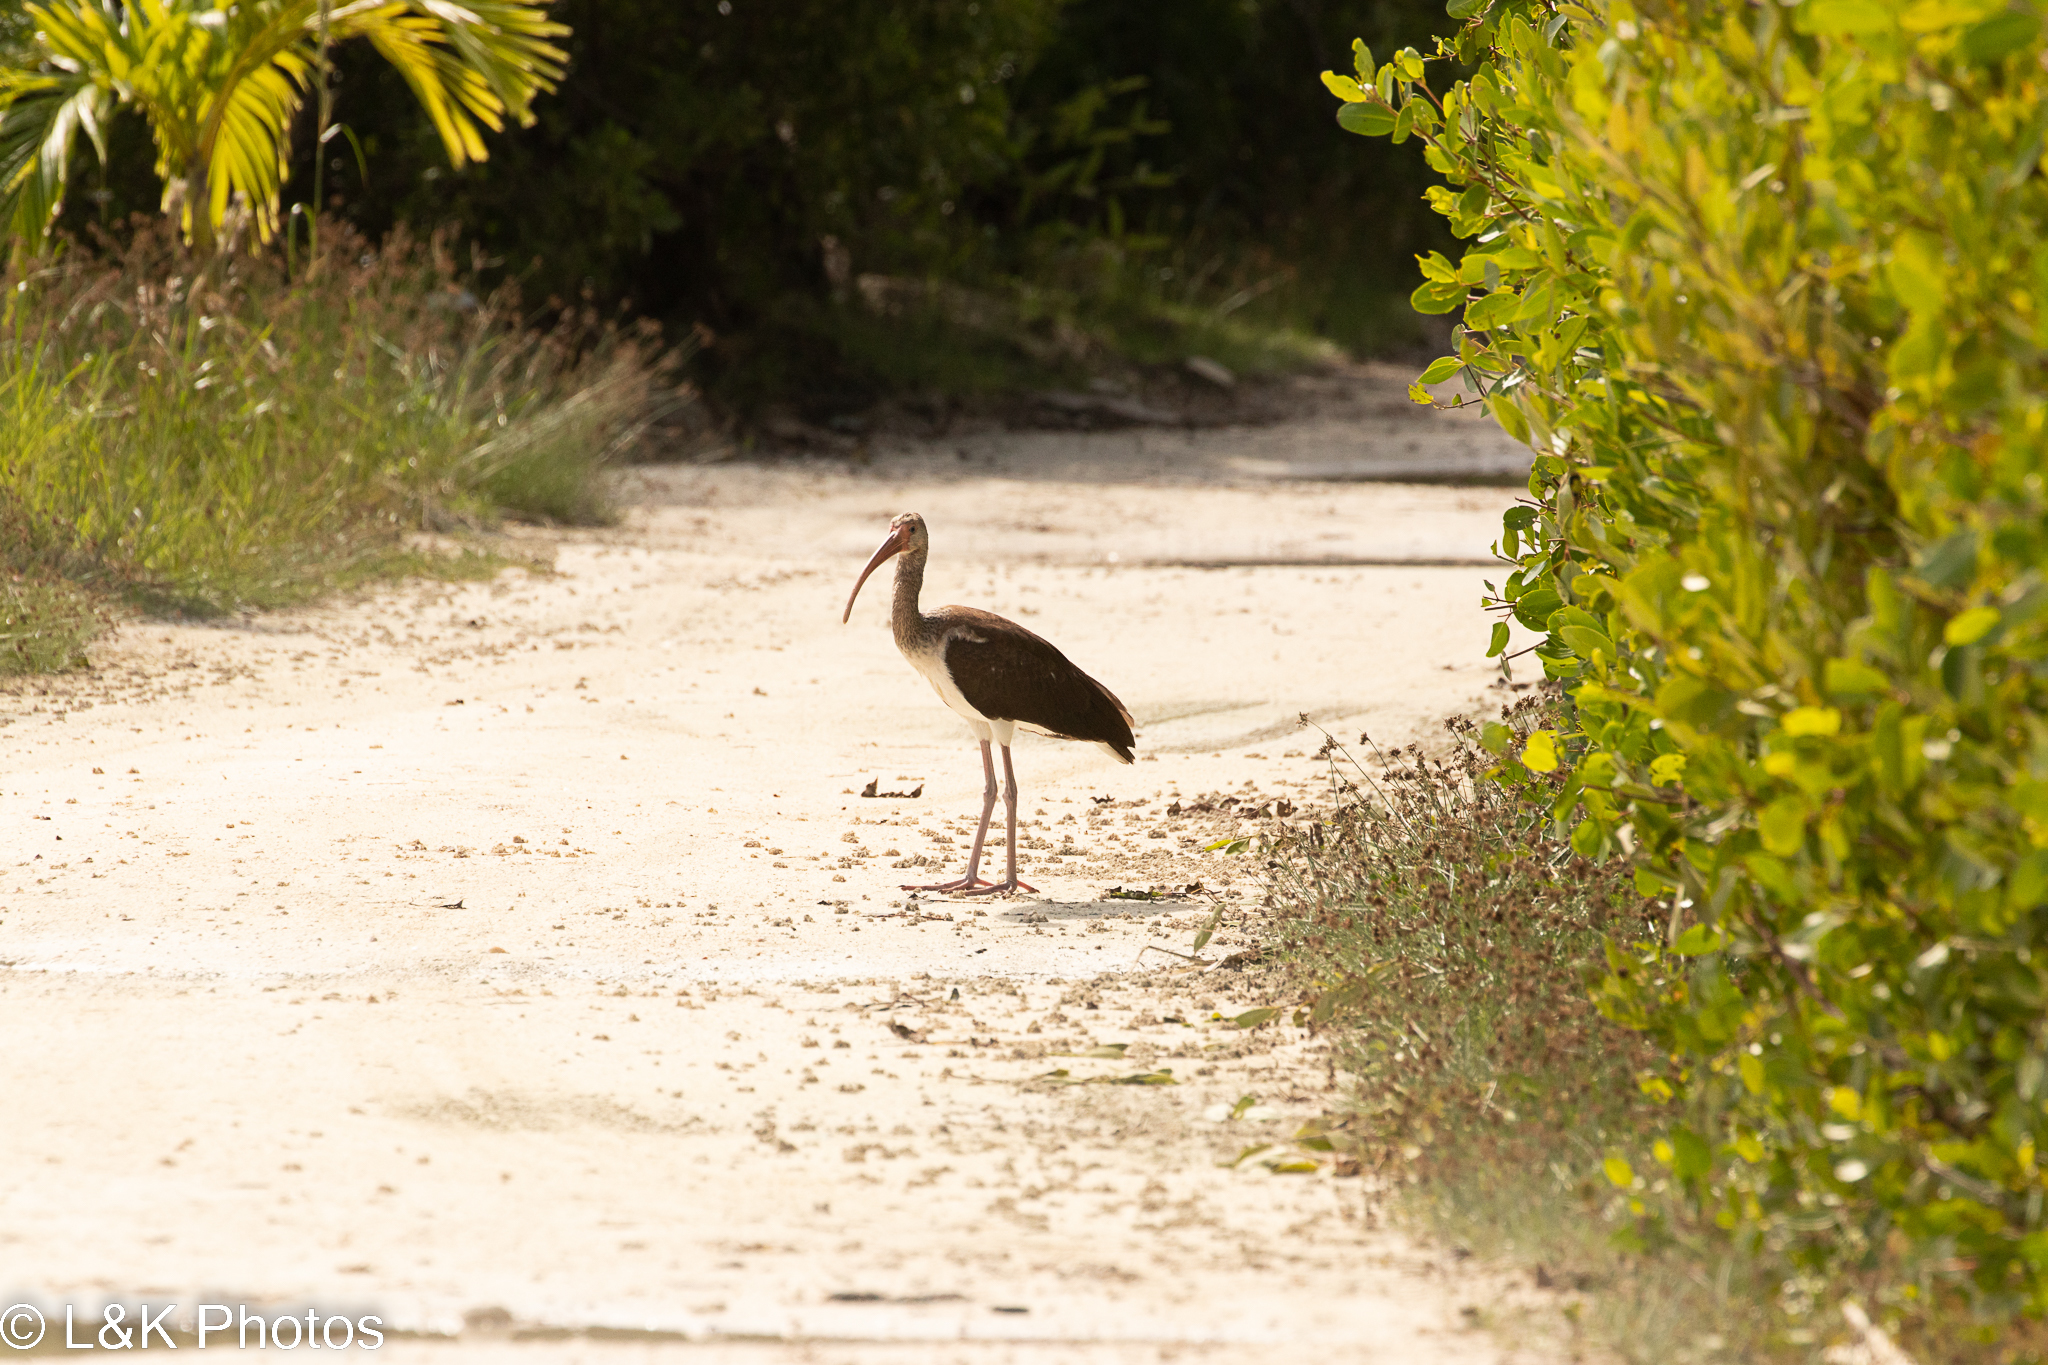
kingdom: Animalia
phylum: Chordata
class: Aves
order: Pelecaniformes
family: Threskiornithidae
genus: Eudocimus
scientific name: Eudocimus albus
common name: White ibis
